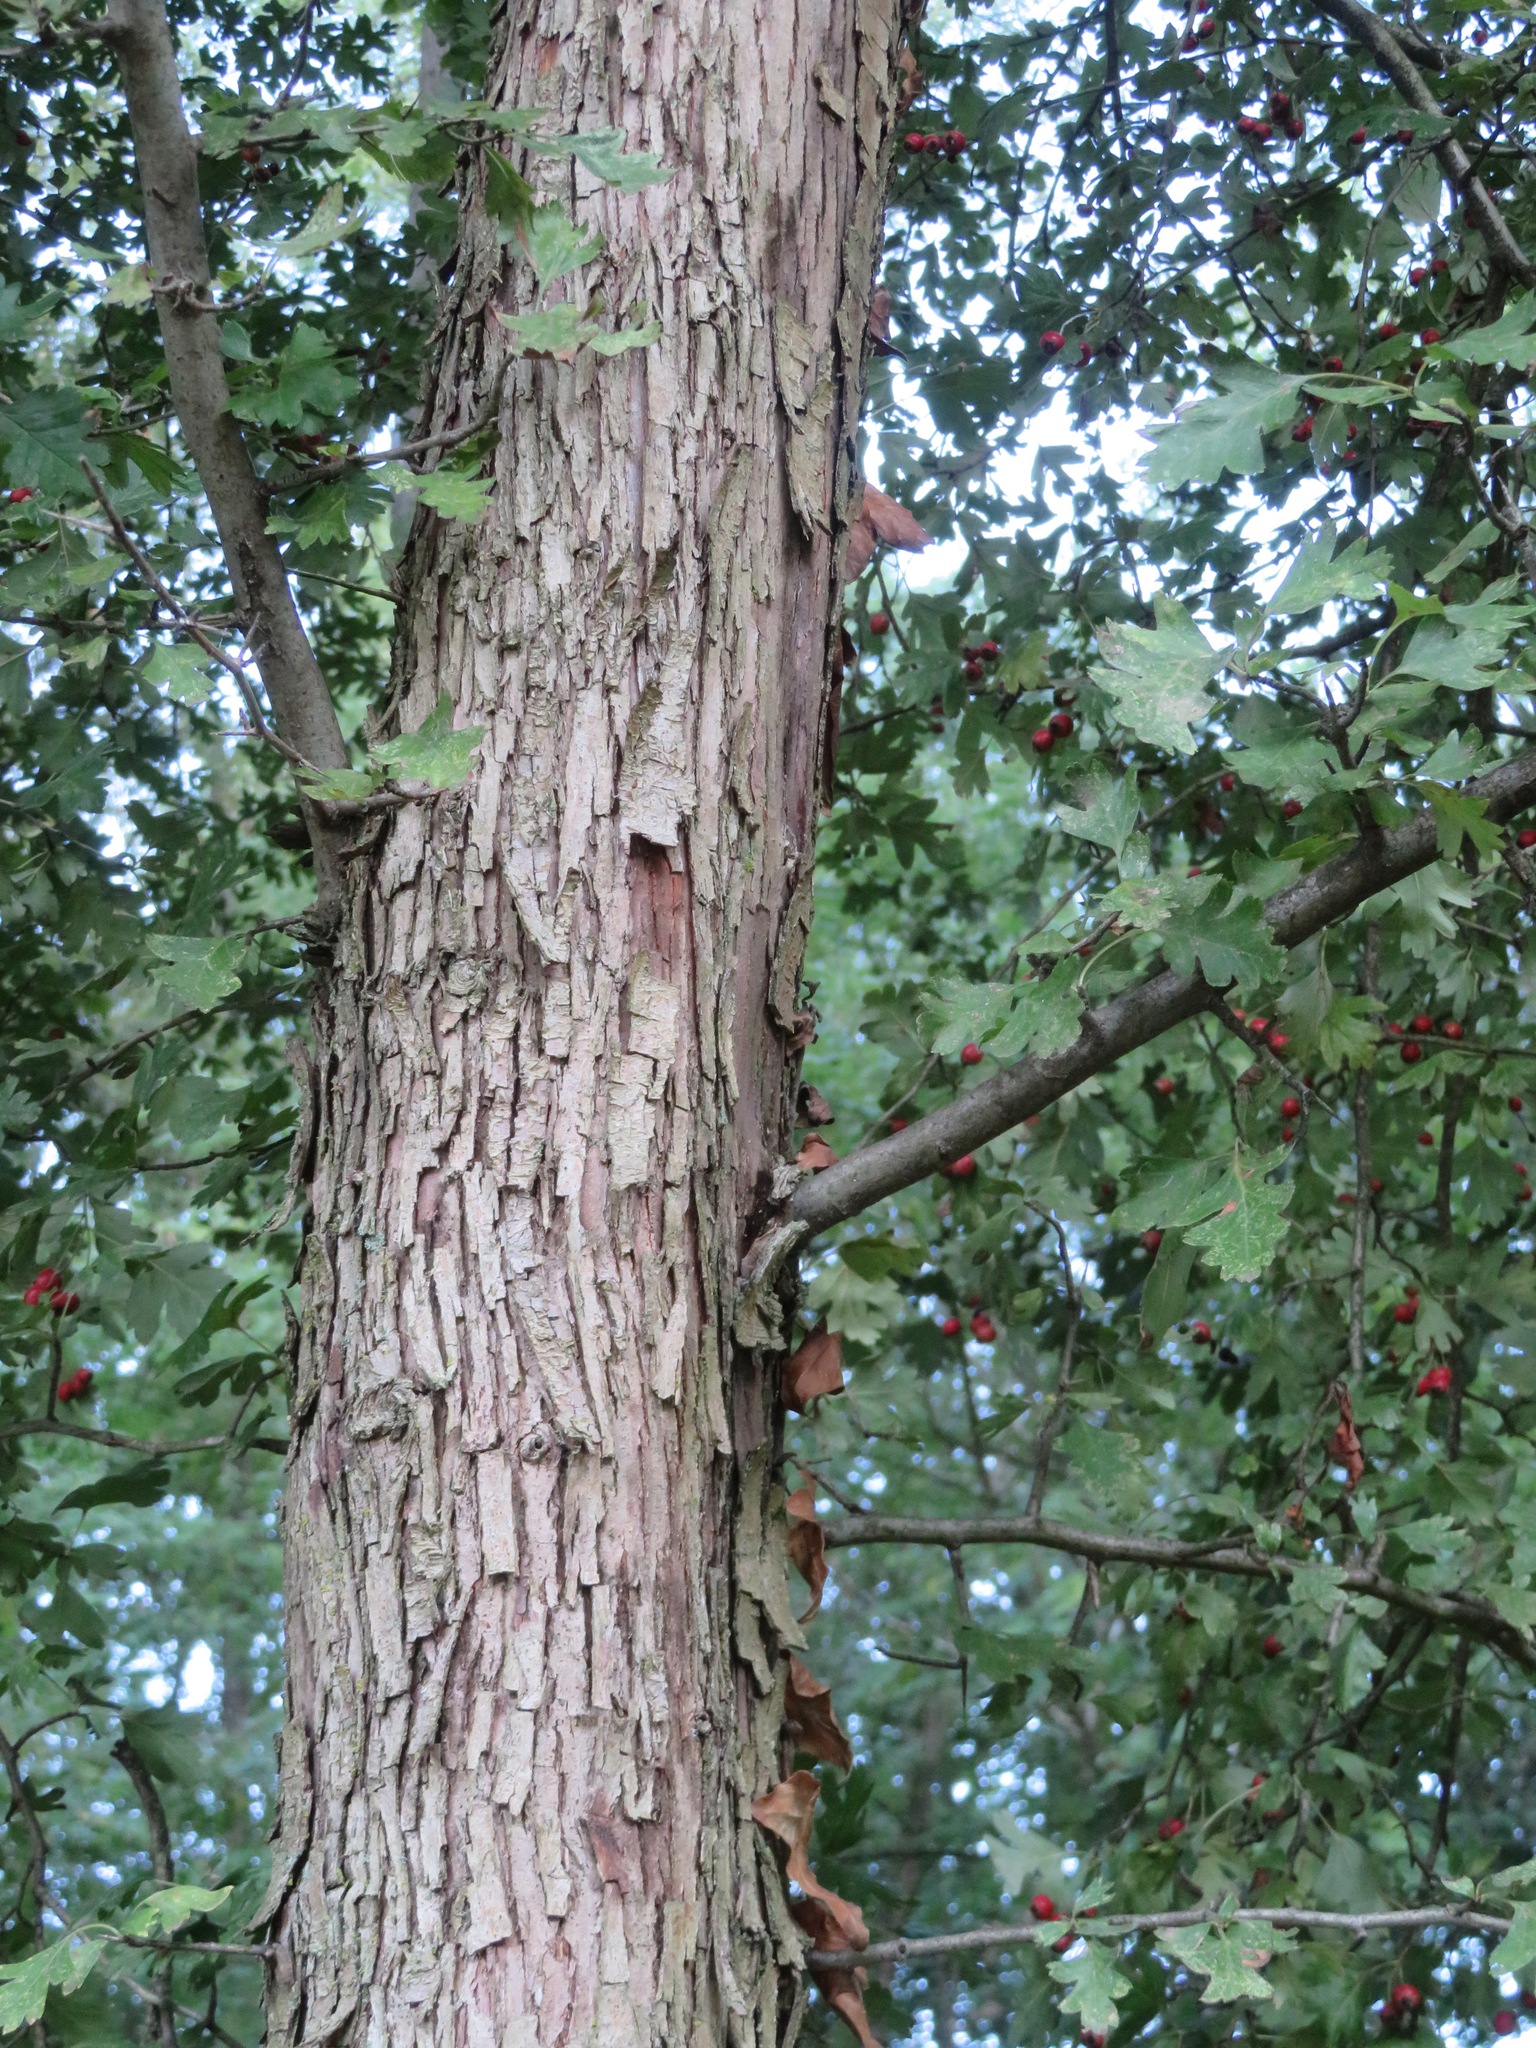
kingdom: Plantae
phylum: Tracheophyta
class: Magnoliopsida
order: Rosales
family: Rosaceae
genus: Crataegus
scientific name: Crataegus monogyna
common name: Hawthorn
